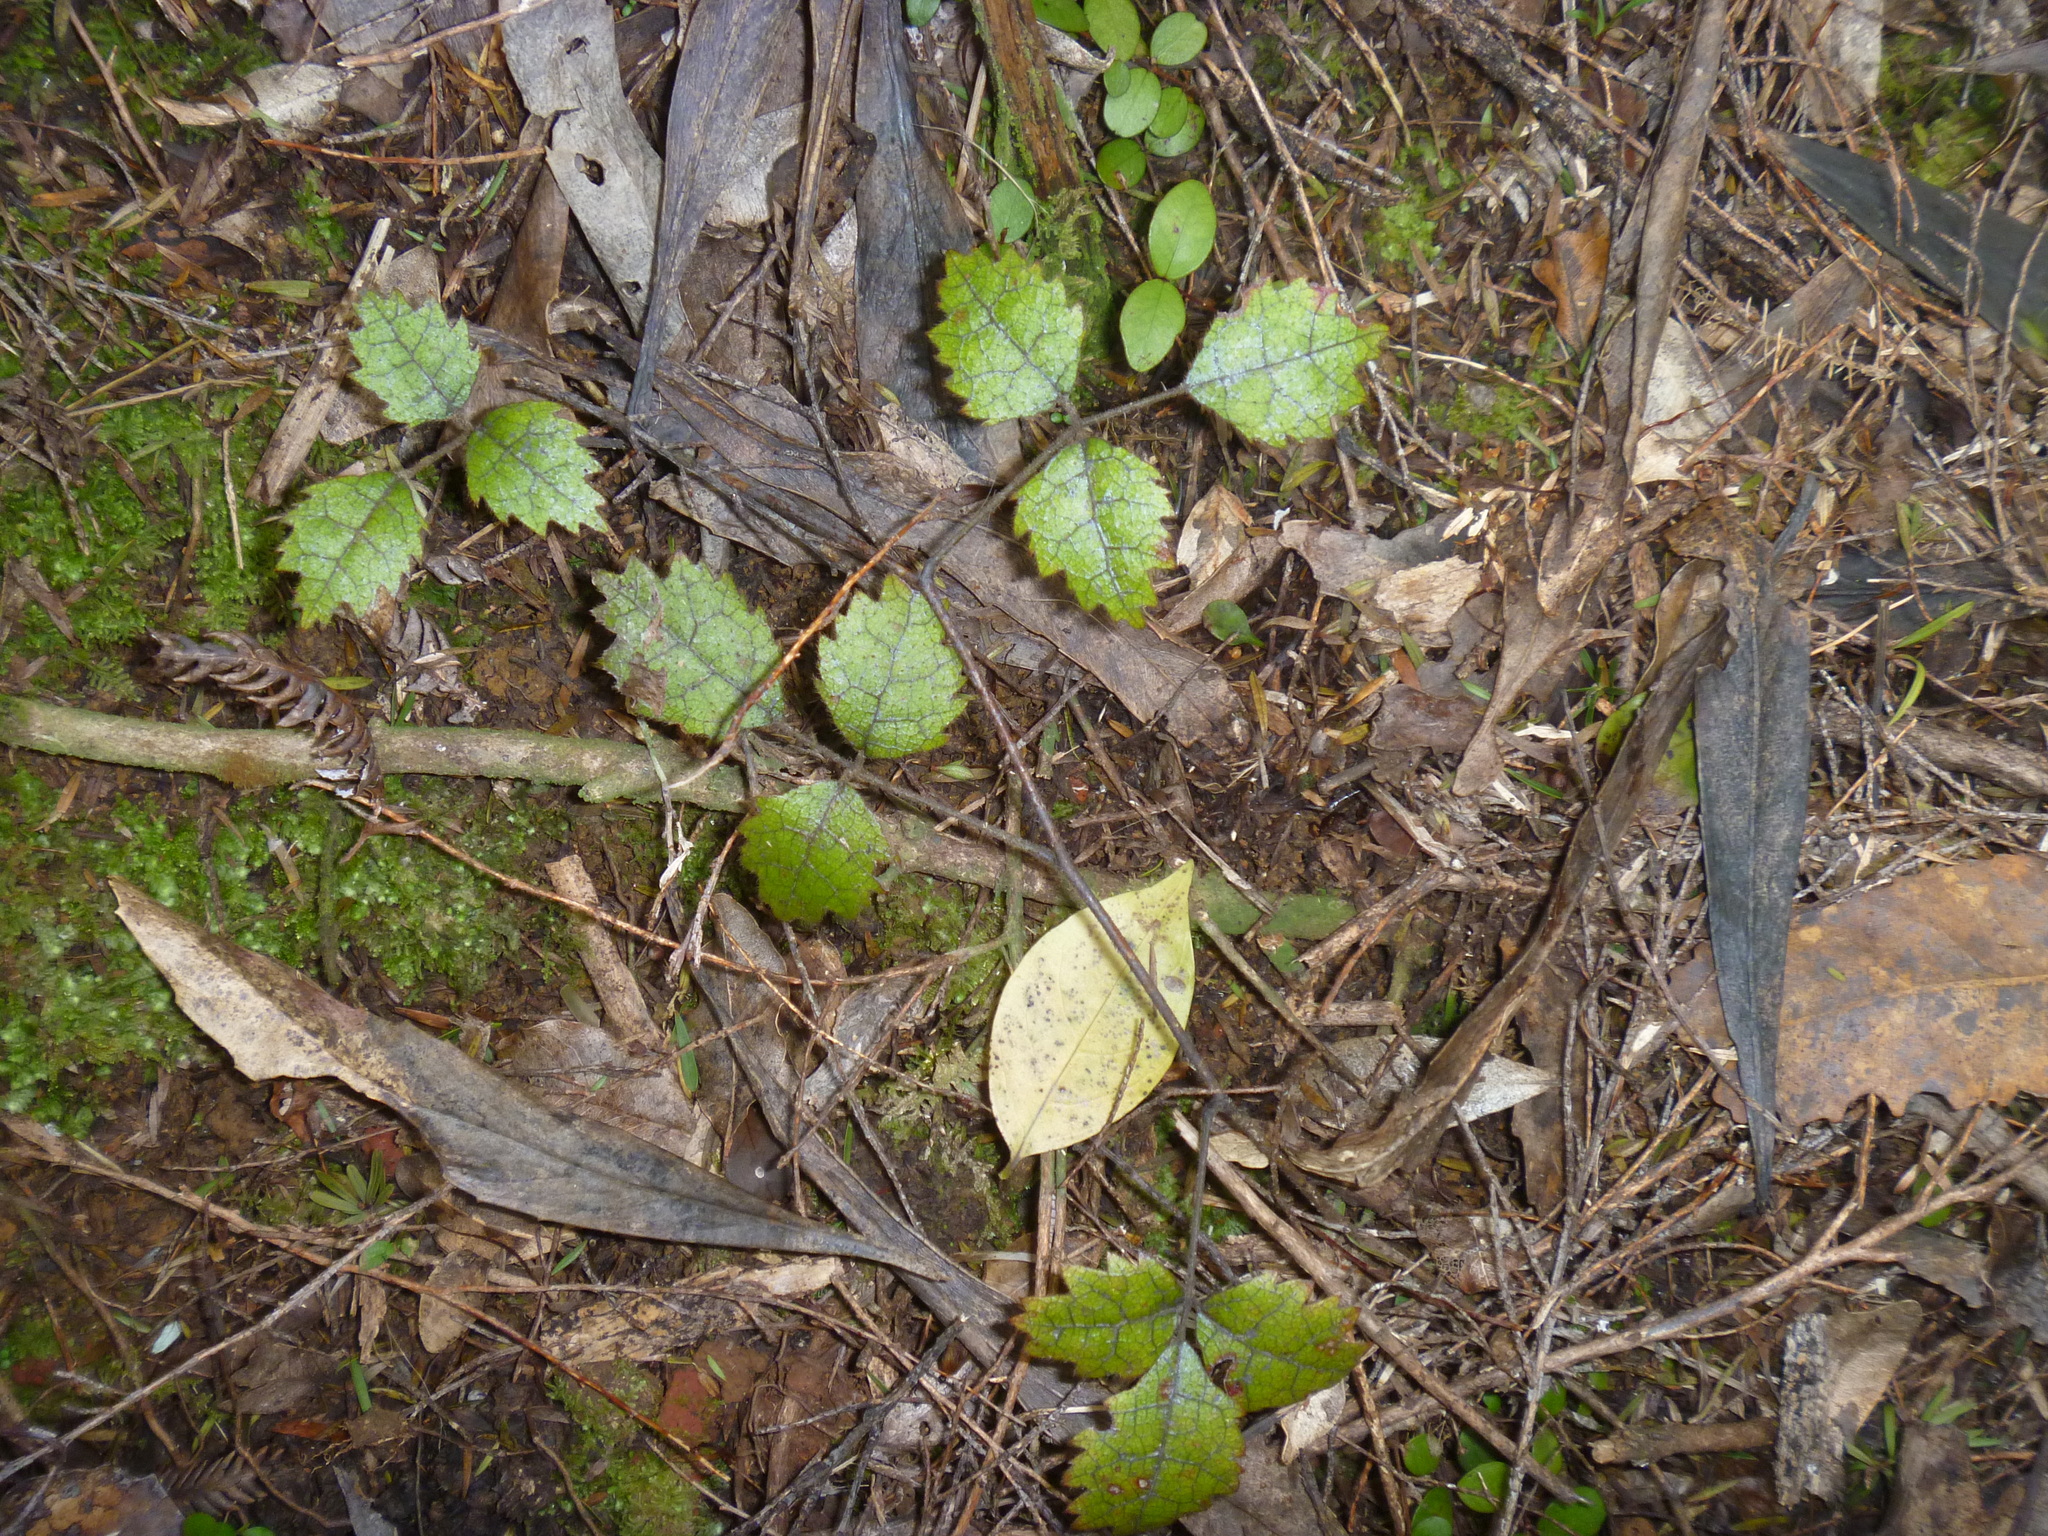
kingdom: Plantae
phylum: Tracheophyta
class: Magnoliopsida
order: Rosales
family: Rosaceae
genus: Rubus
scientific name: Rubus australis
